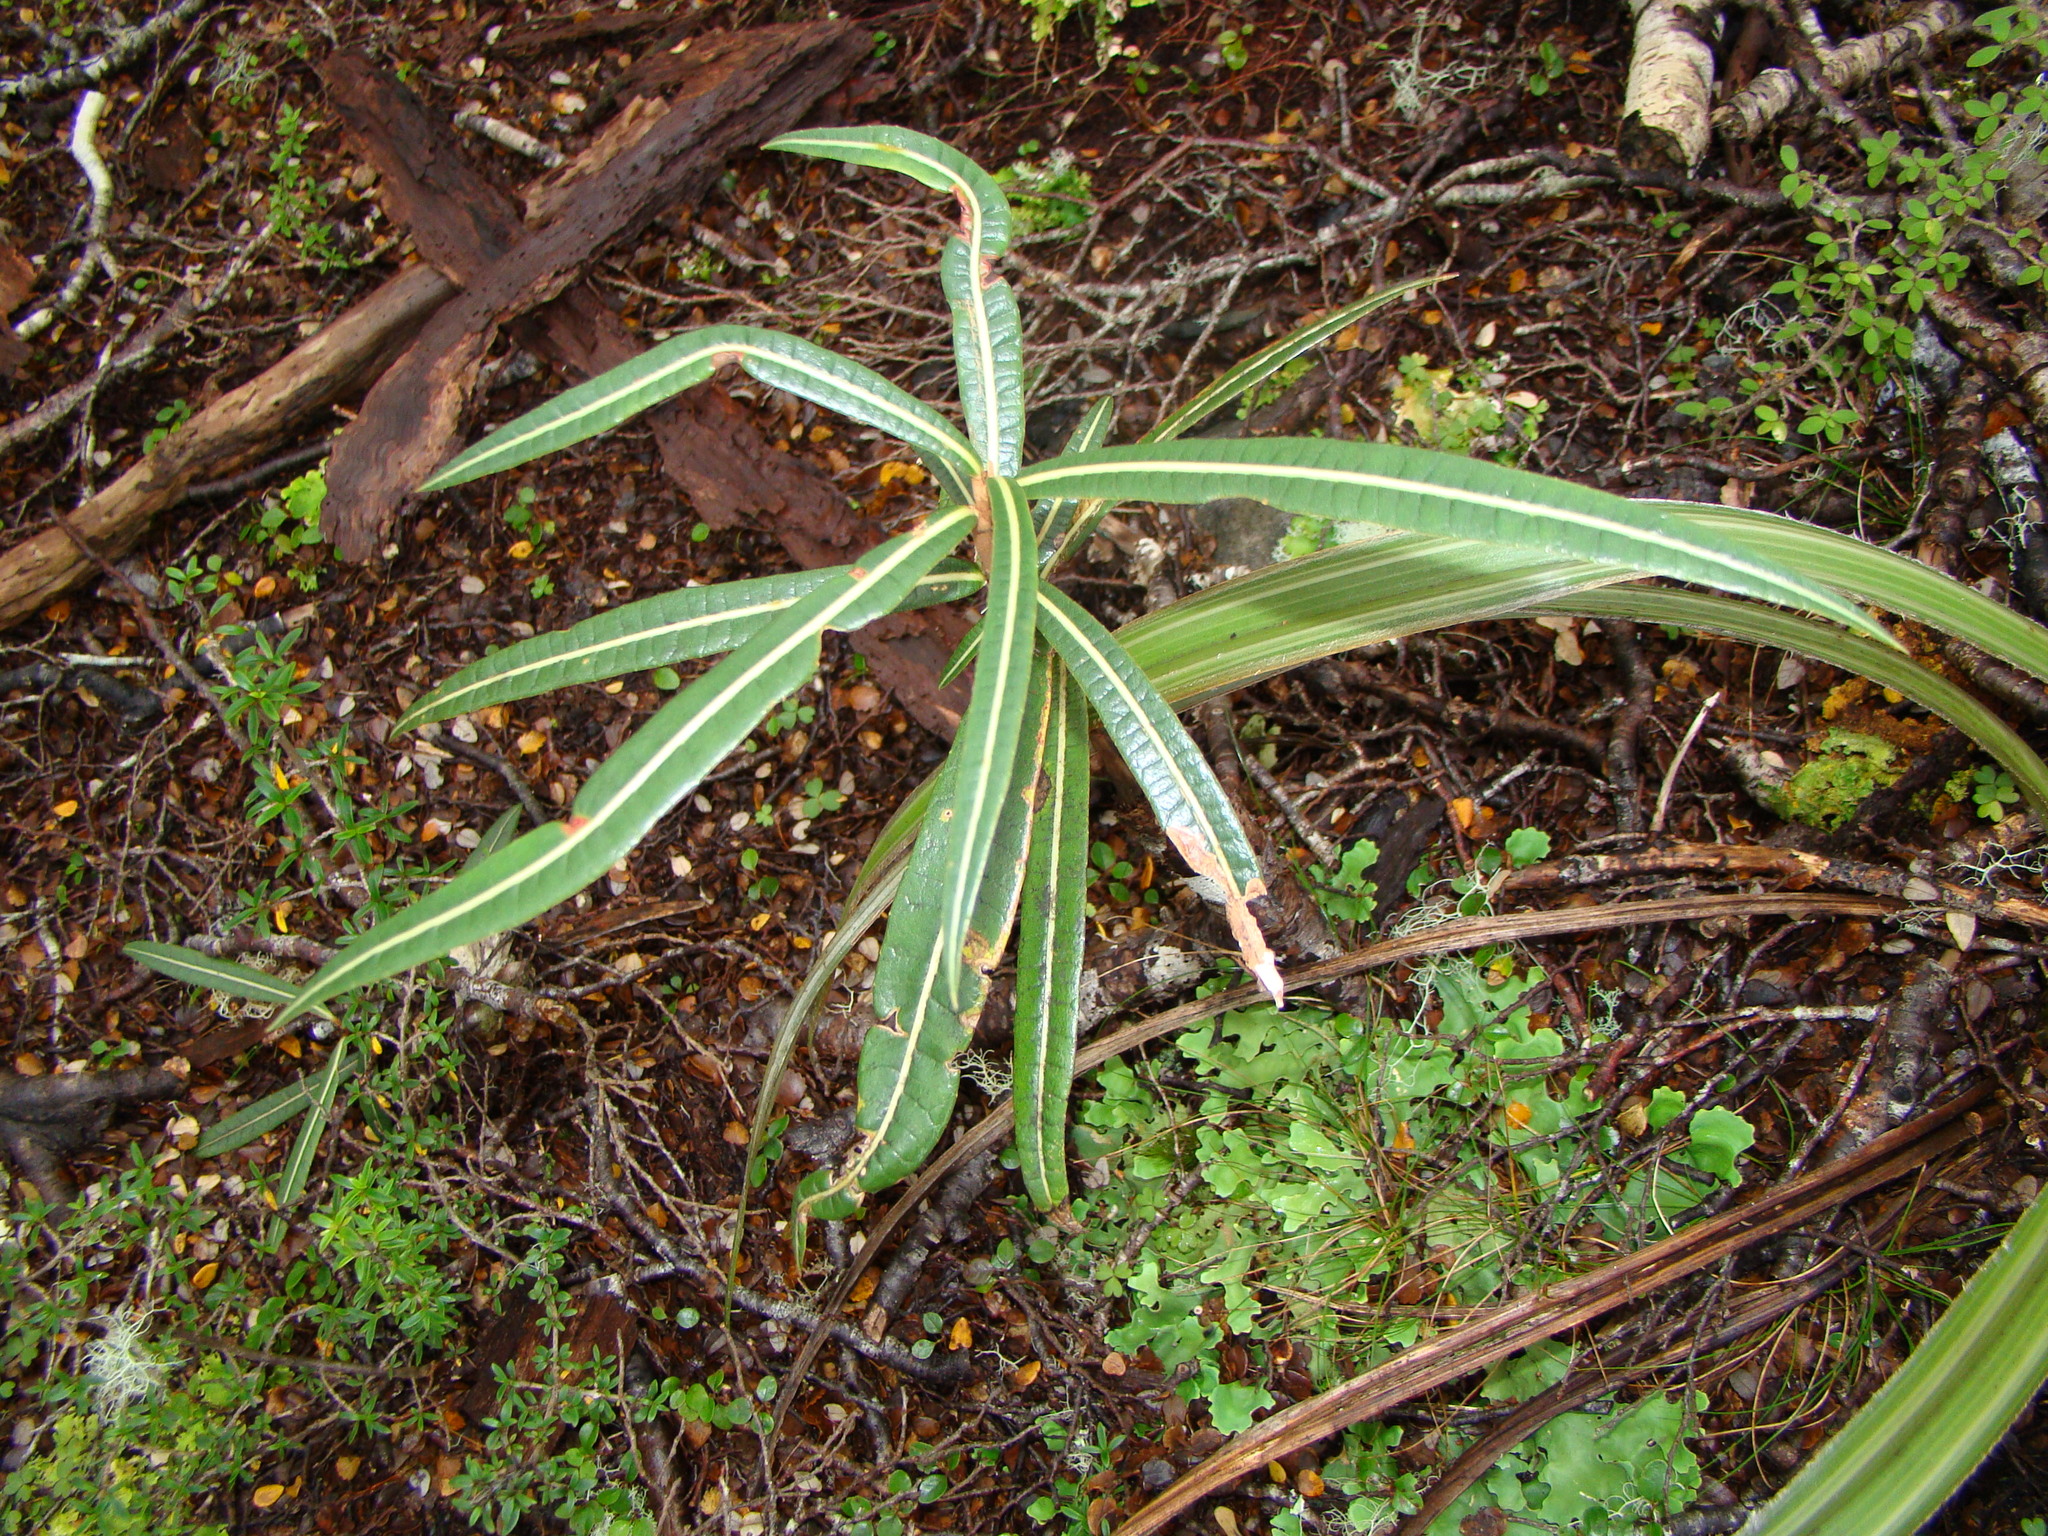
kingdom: Plantae
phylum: Tracheophyta
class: Magnoliopsida
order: Asterales
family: Asteraceae
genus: Olearia
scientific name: Olearia lacunosa
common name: Lancewood tree daisy
